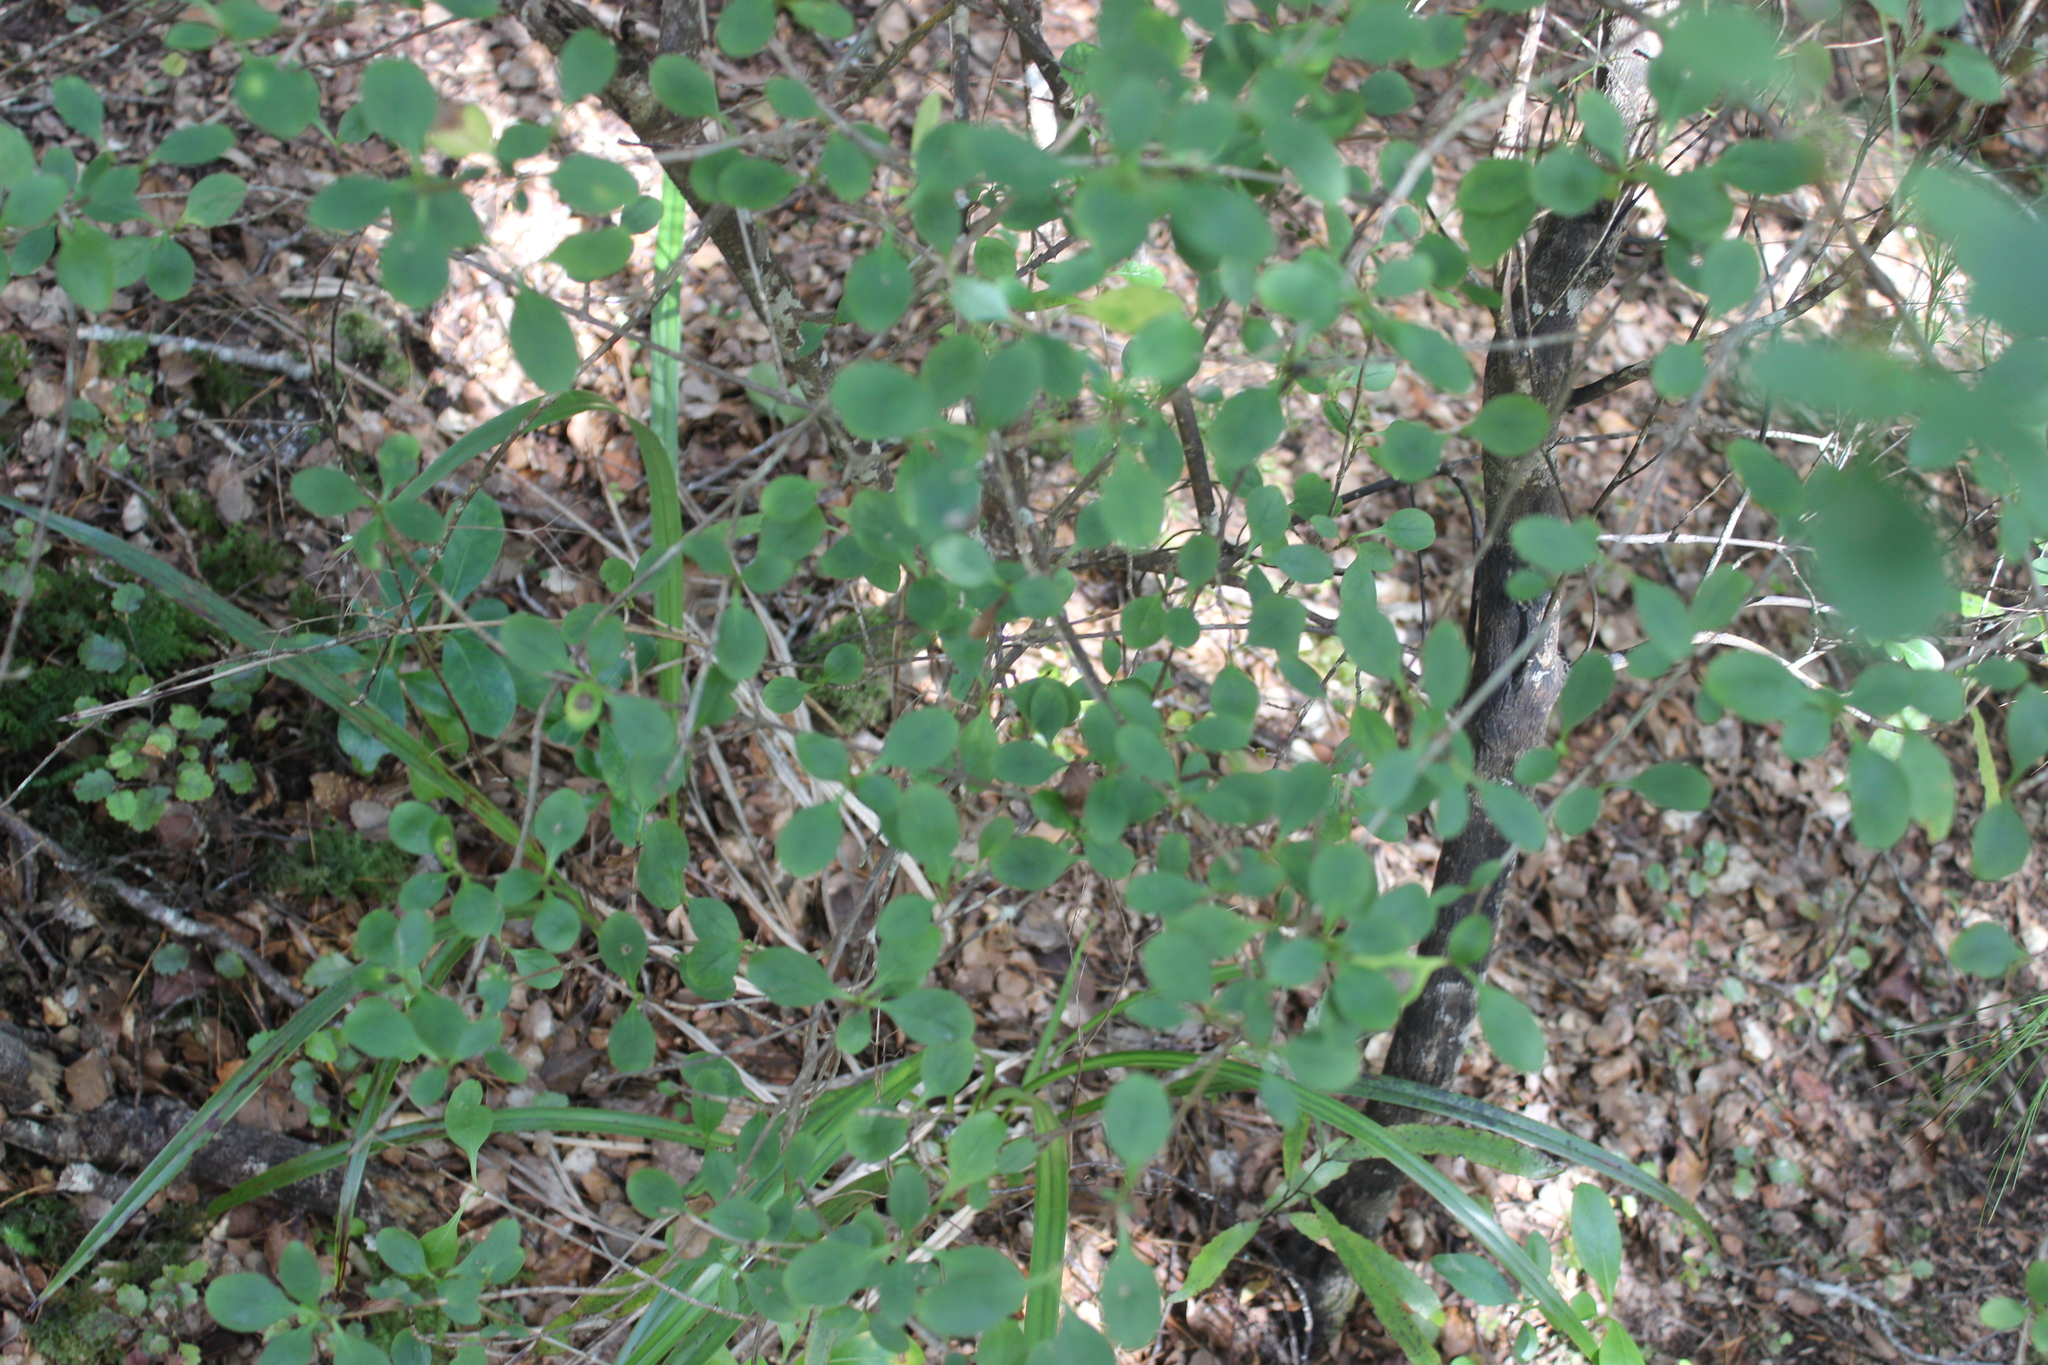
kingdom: Plantae
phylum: Tracheophyta
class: Magnoliopsida
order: Gentianales
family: Rubiaceae
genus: Coprosma
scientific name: Coprosma foetidissima
